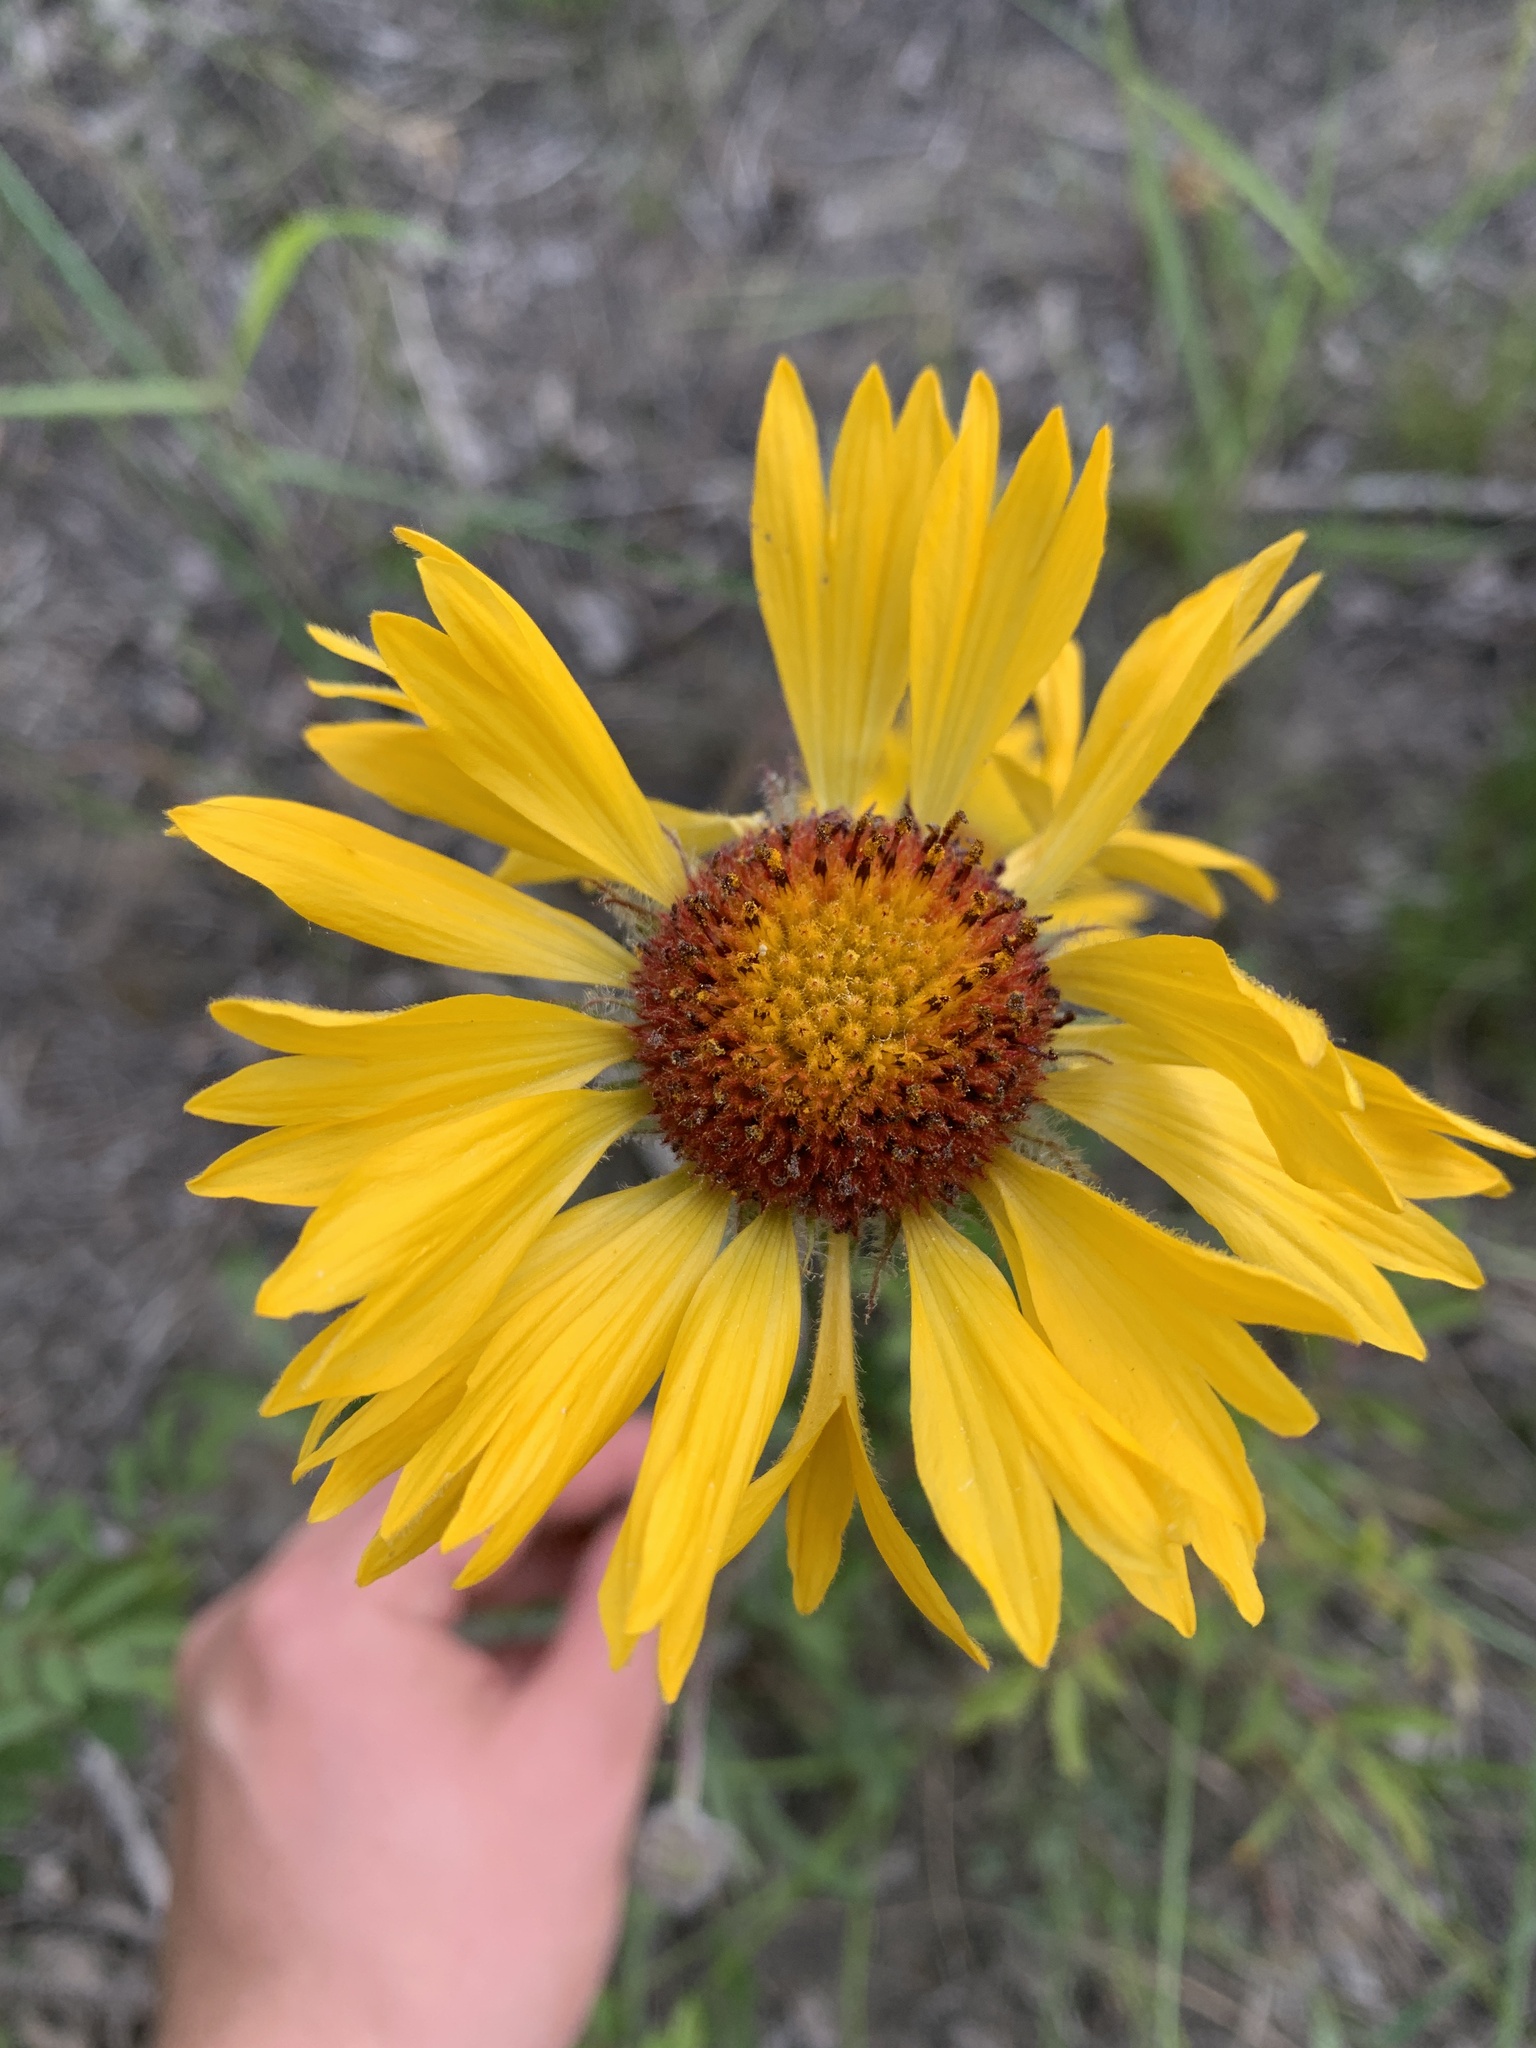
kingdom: Plantae
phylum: Tracheophyta
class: Magnoliopsida
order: Asterales
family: Asteraceae
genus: Gaillardia
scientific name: Gaillardia aristata
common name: Blanket-flower
